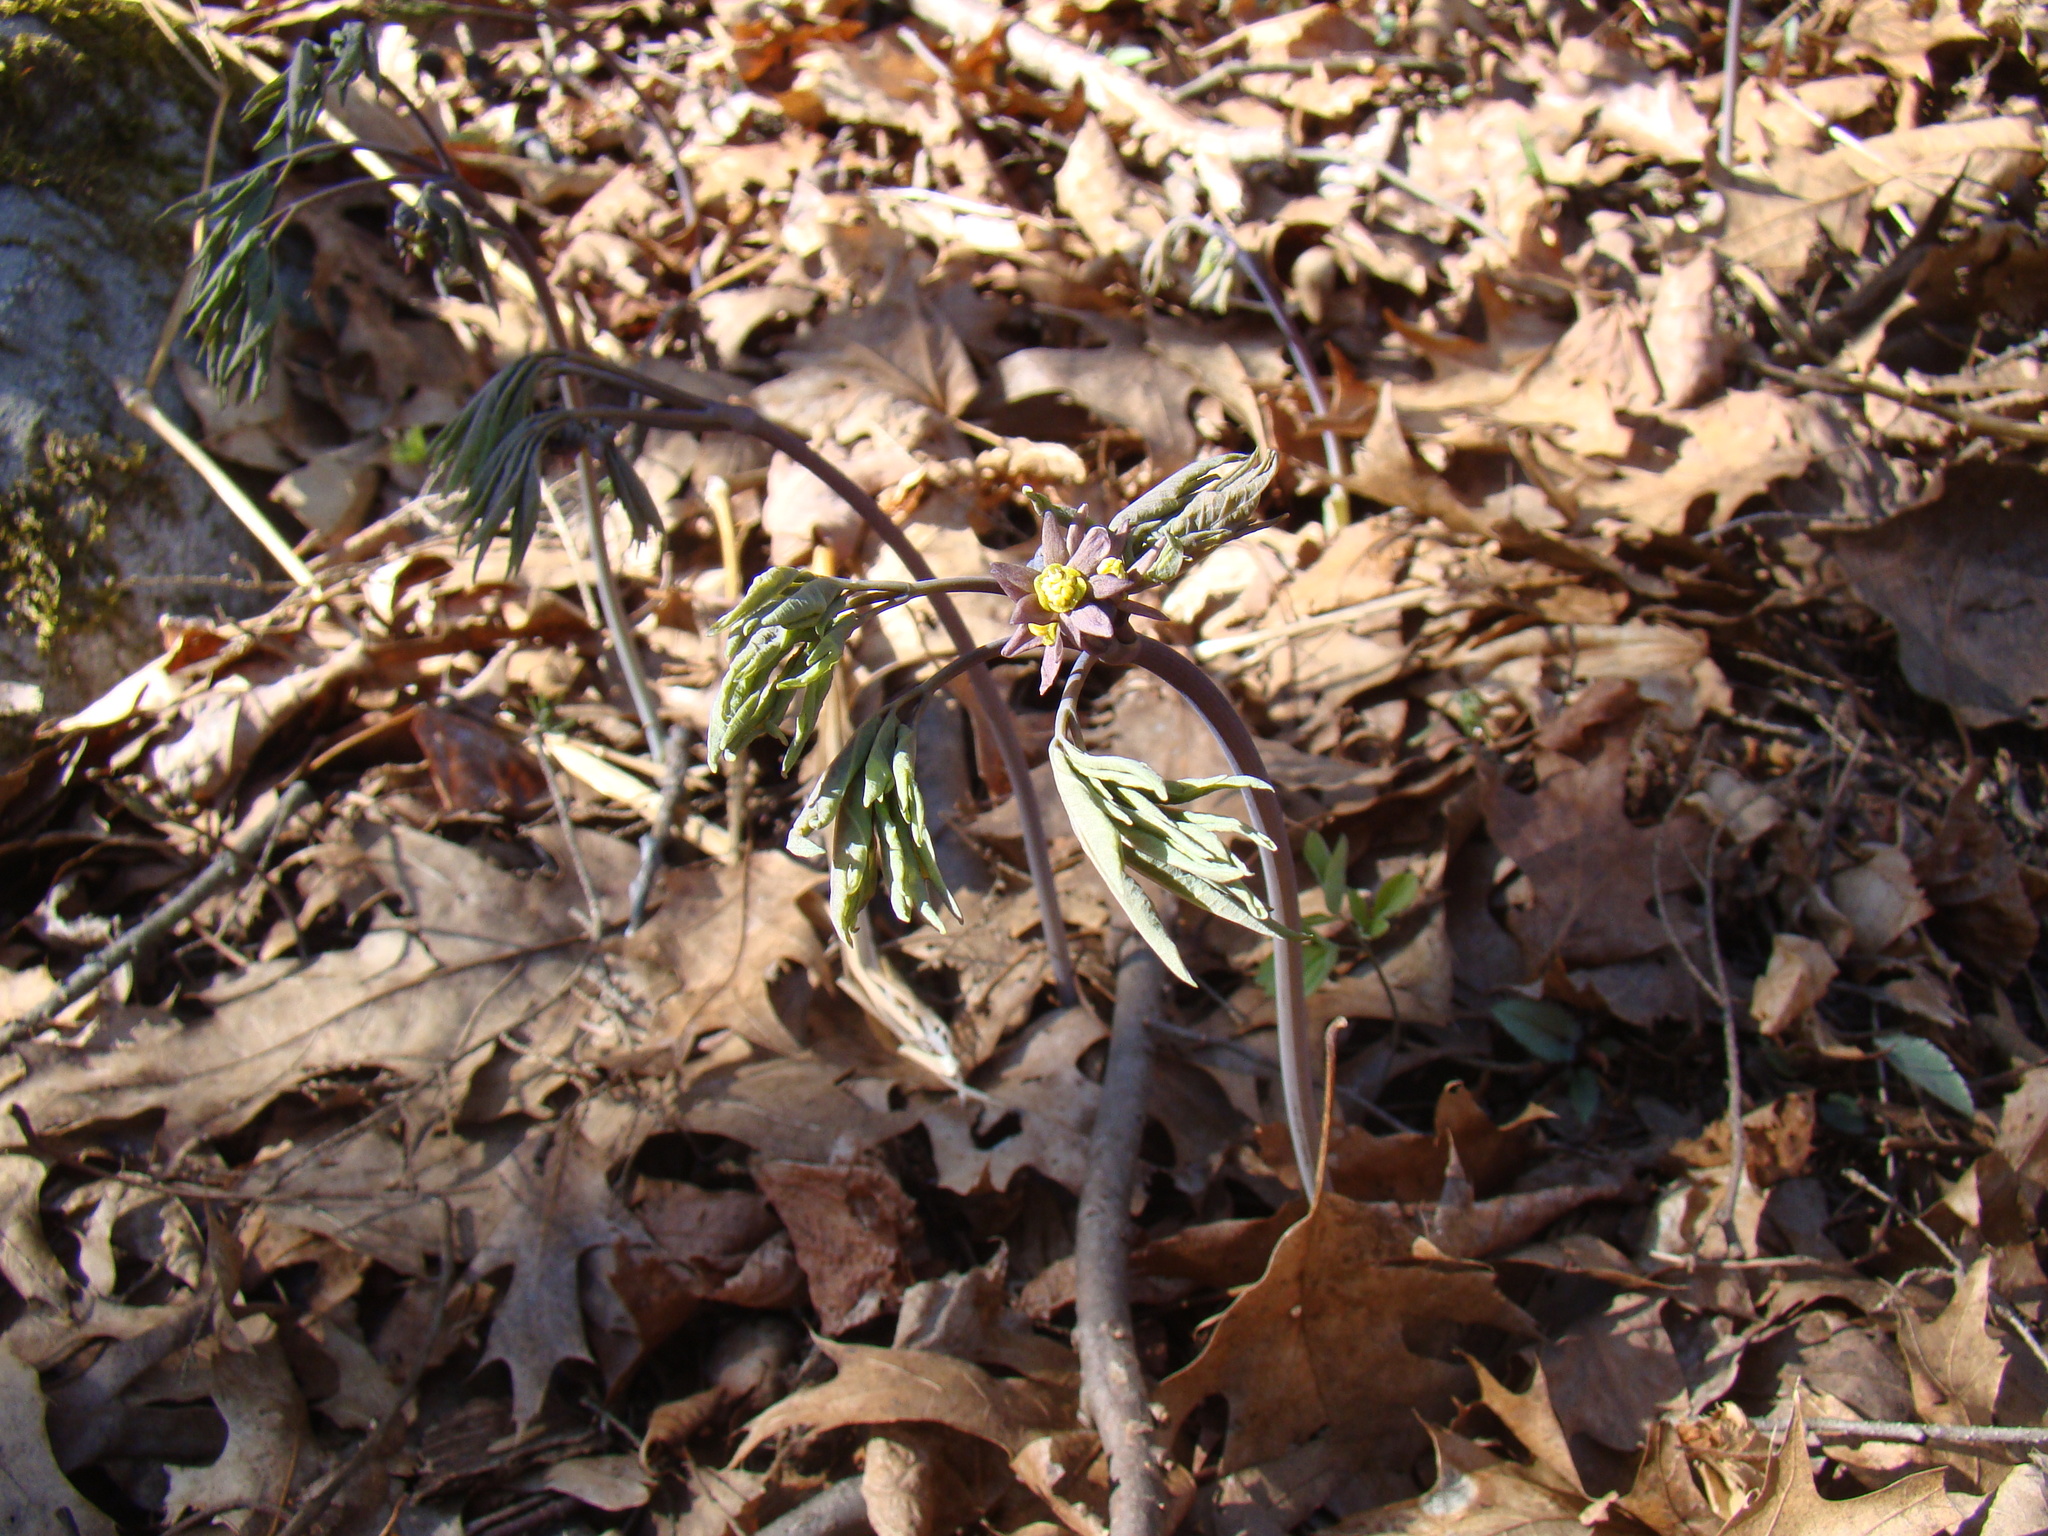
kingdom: Plantae
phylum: Tracheophyta
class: Magnoliopsida
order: Ranunculales
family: Berberidaceae
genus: Caulophyllum
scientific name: Caulophyllum giganteum
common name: Blue cohosh
